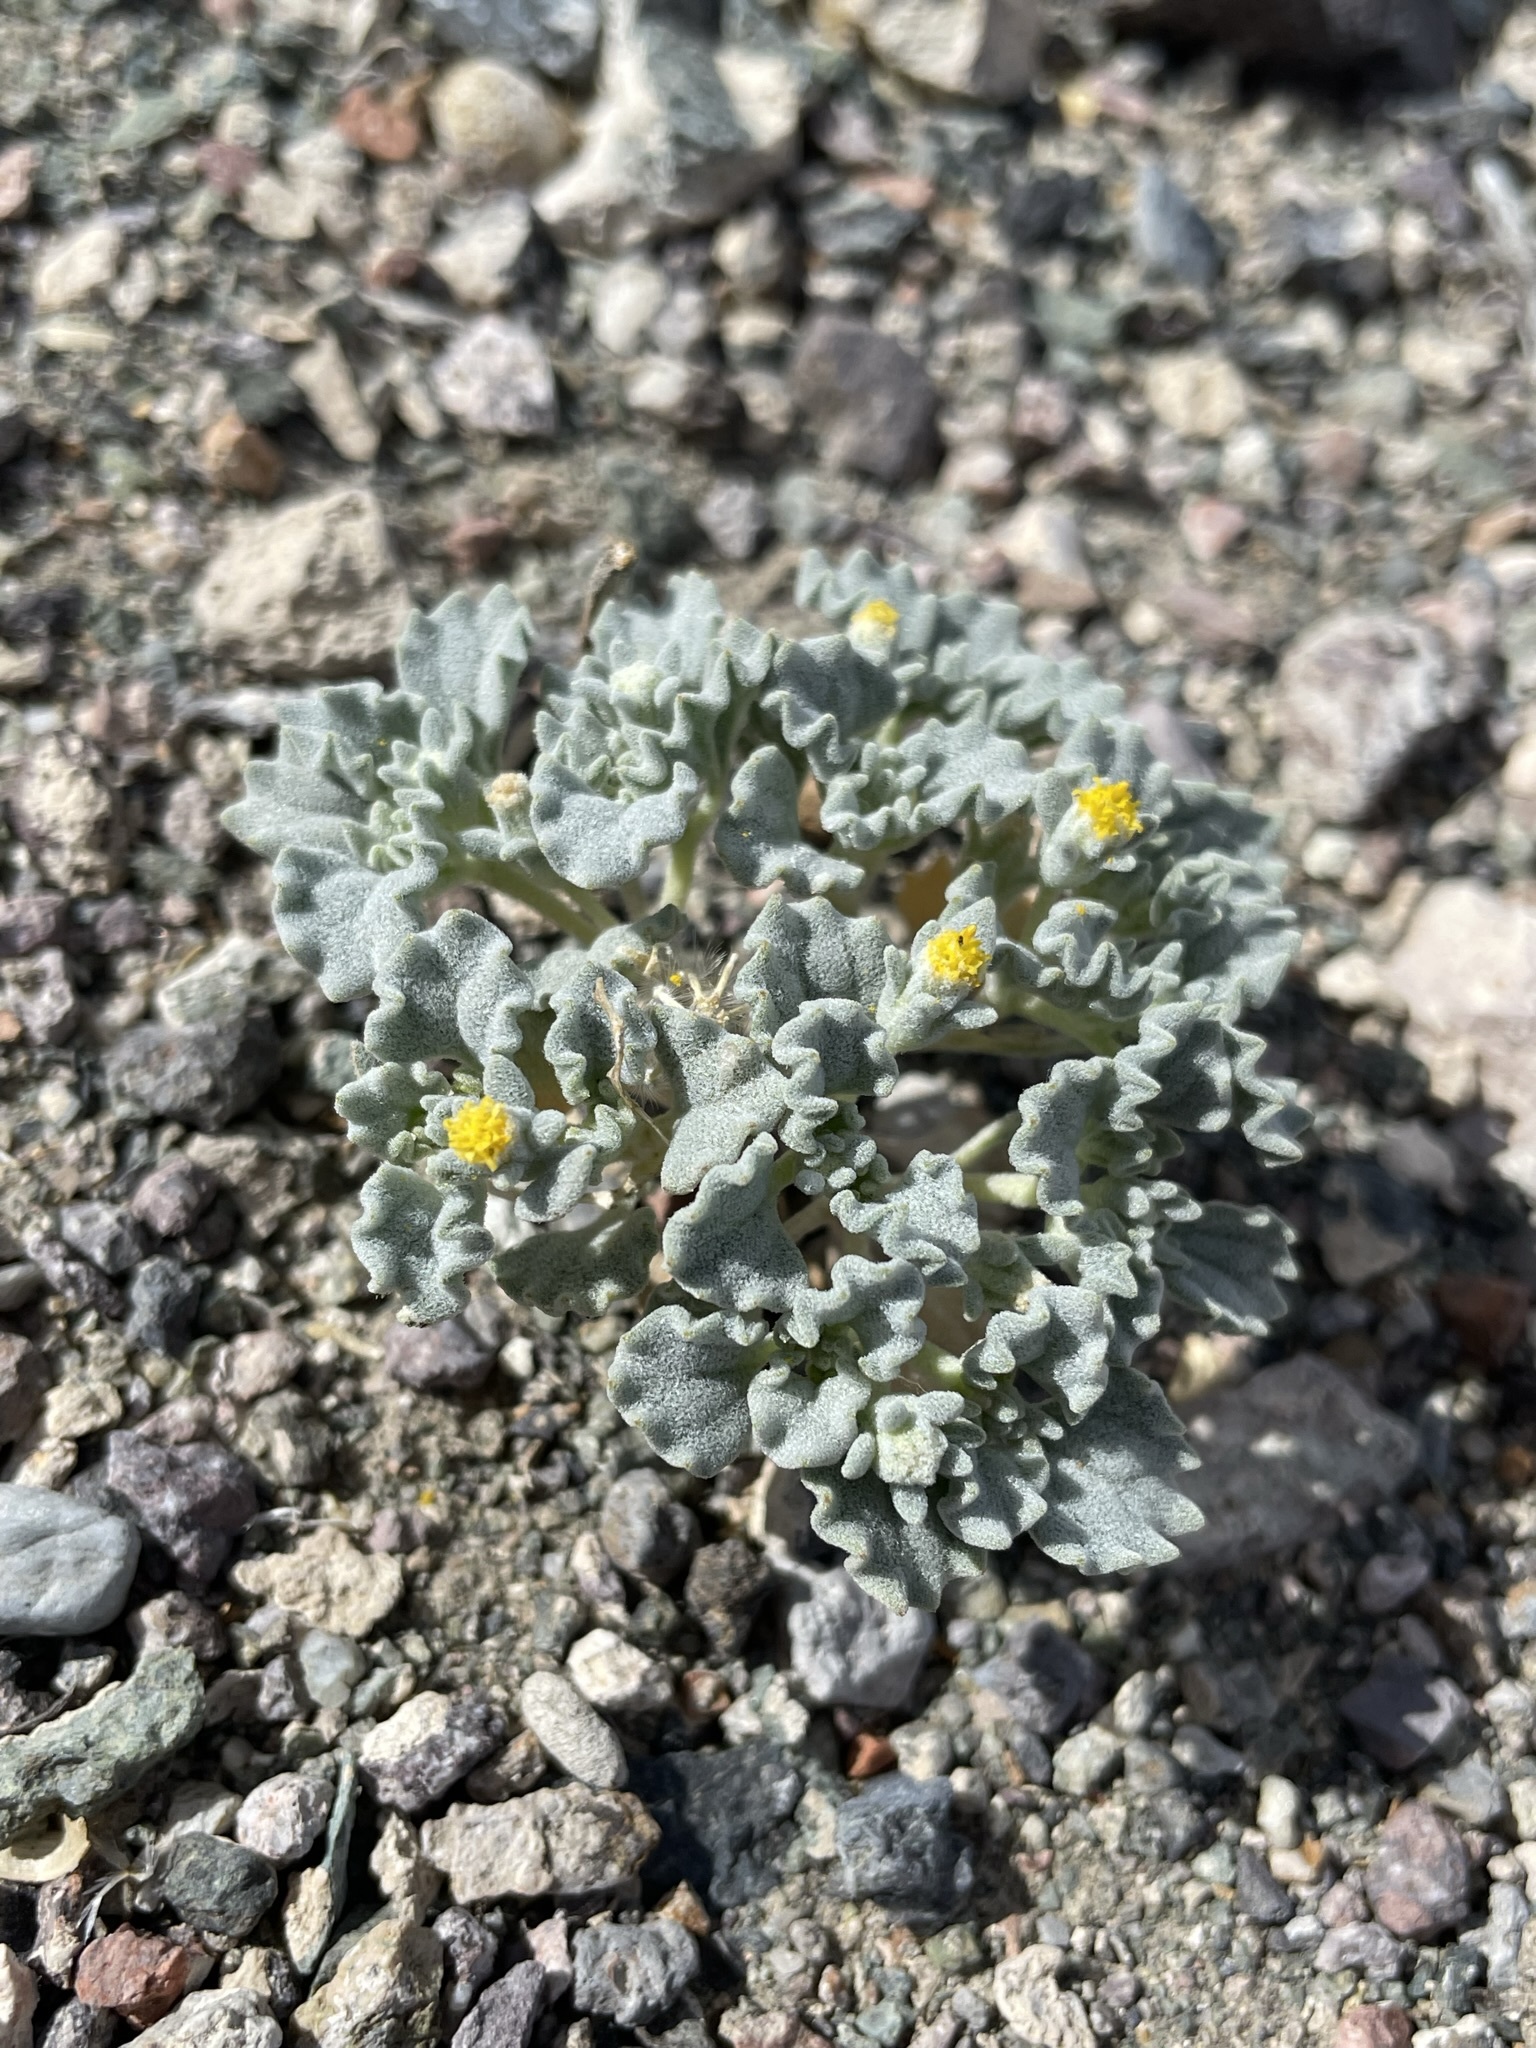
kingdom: Plantae
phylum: Tracheophyta
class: Magnoliopsida
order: Asterales
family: Asteraceae
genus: Psathyrotes
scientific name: Psathyrotes annua
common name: Mealy rosettes
